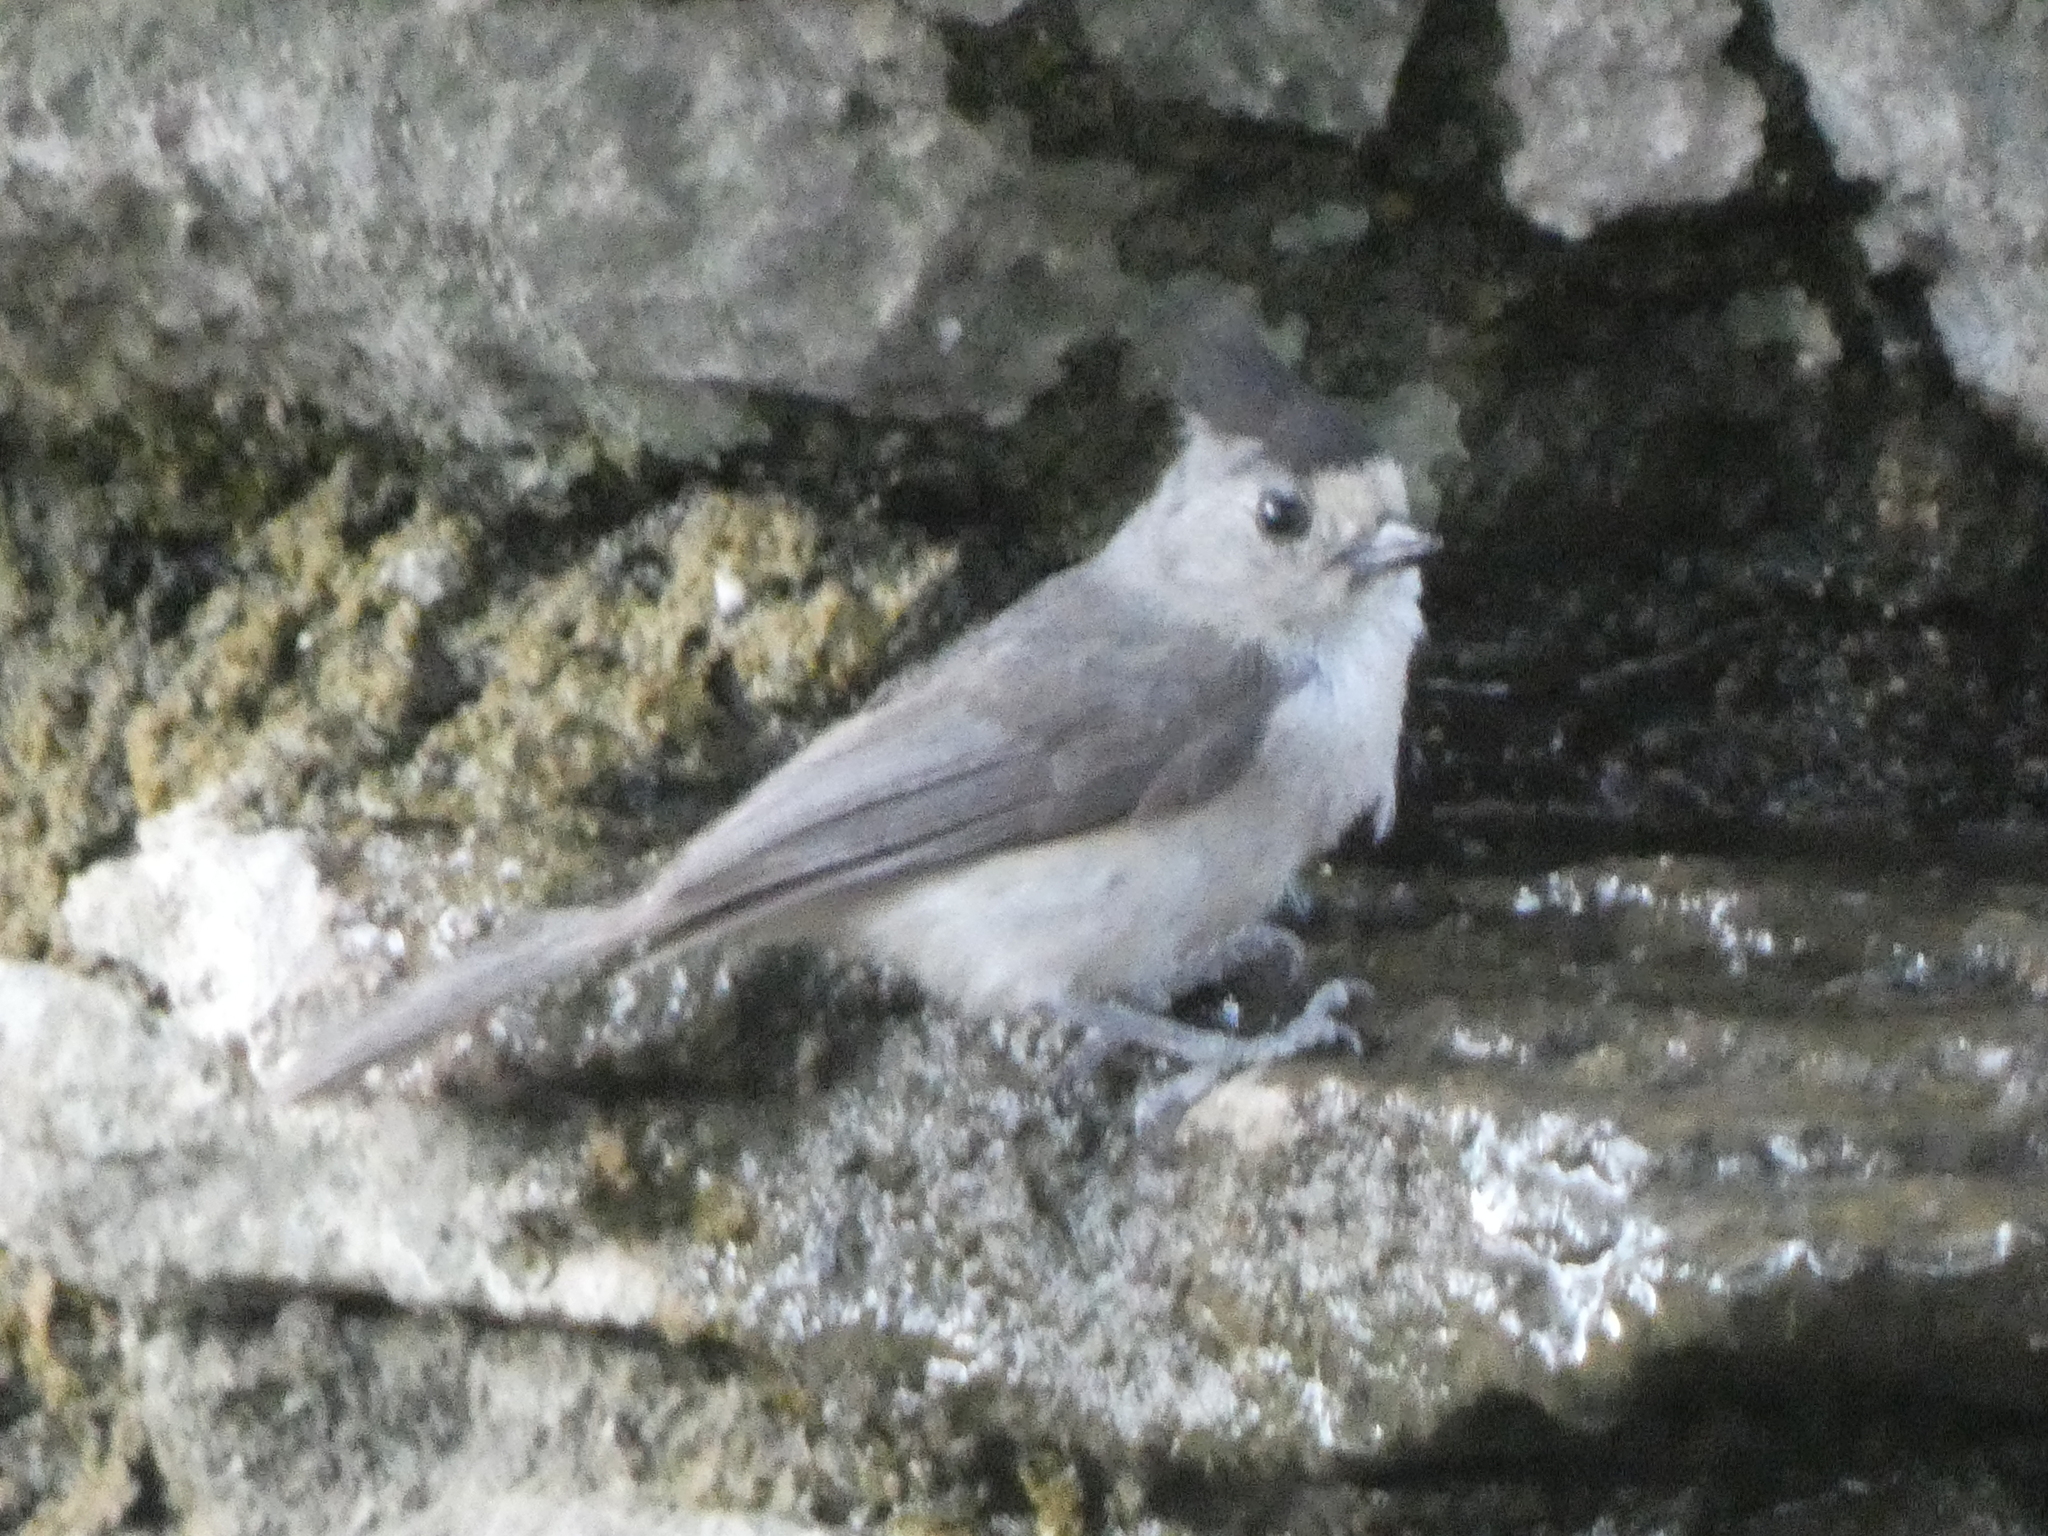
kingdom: Animalia
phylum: Chordata
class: Aves
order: Passeriformes
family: Paridae
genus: Baeolophus
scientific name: Baeolophus atricristatus
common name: Black-crested titmouse
